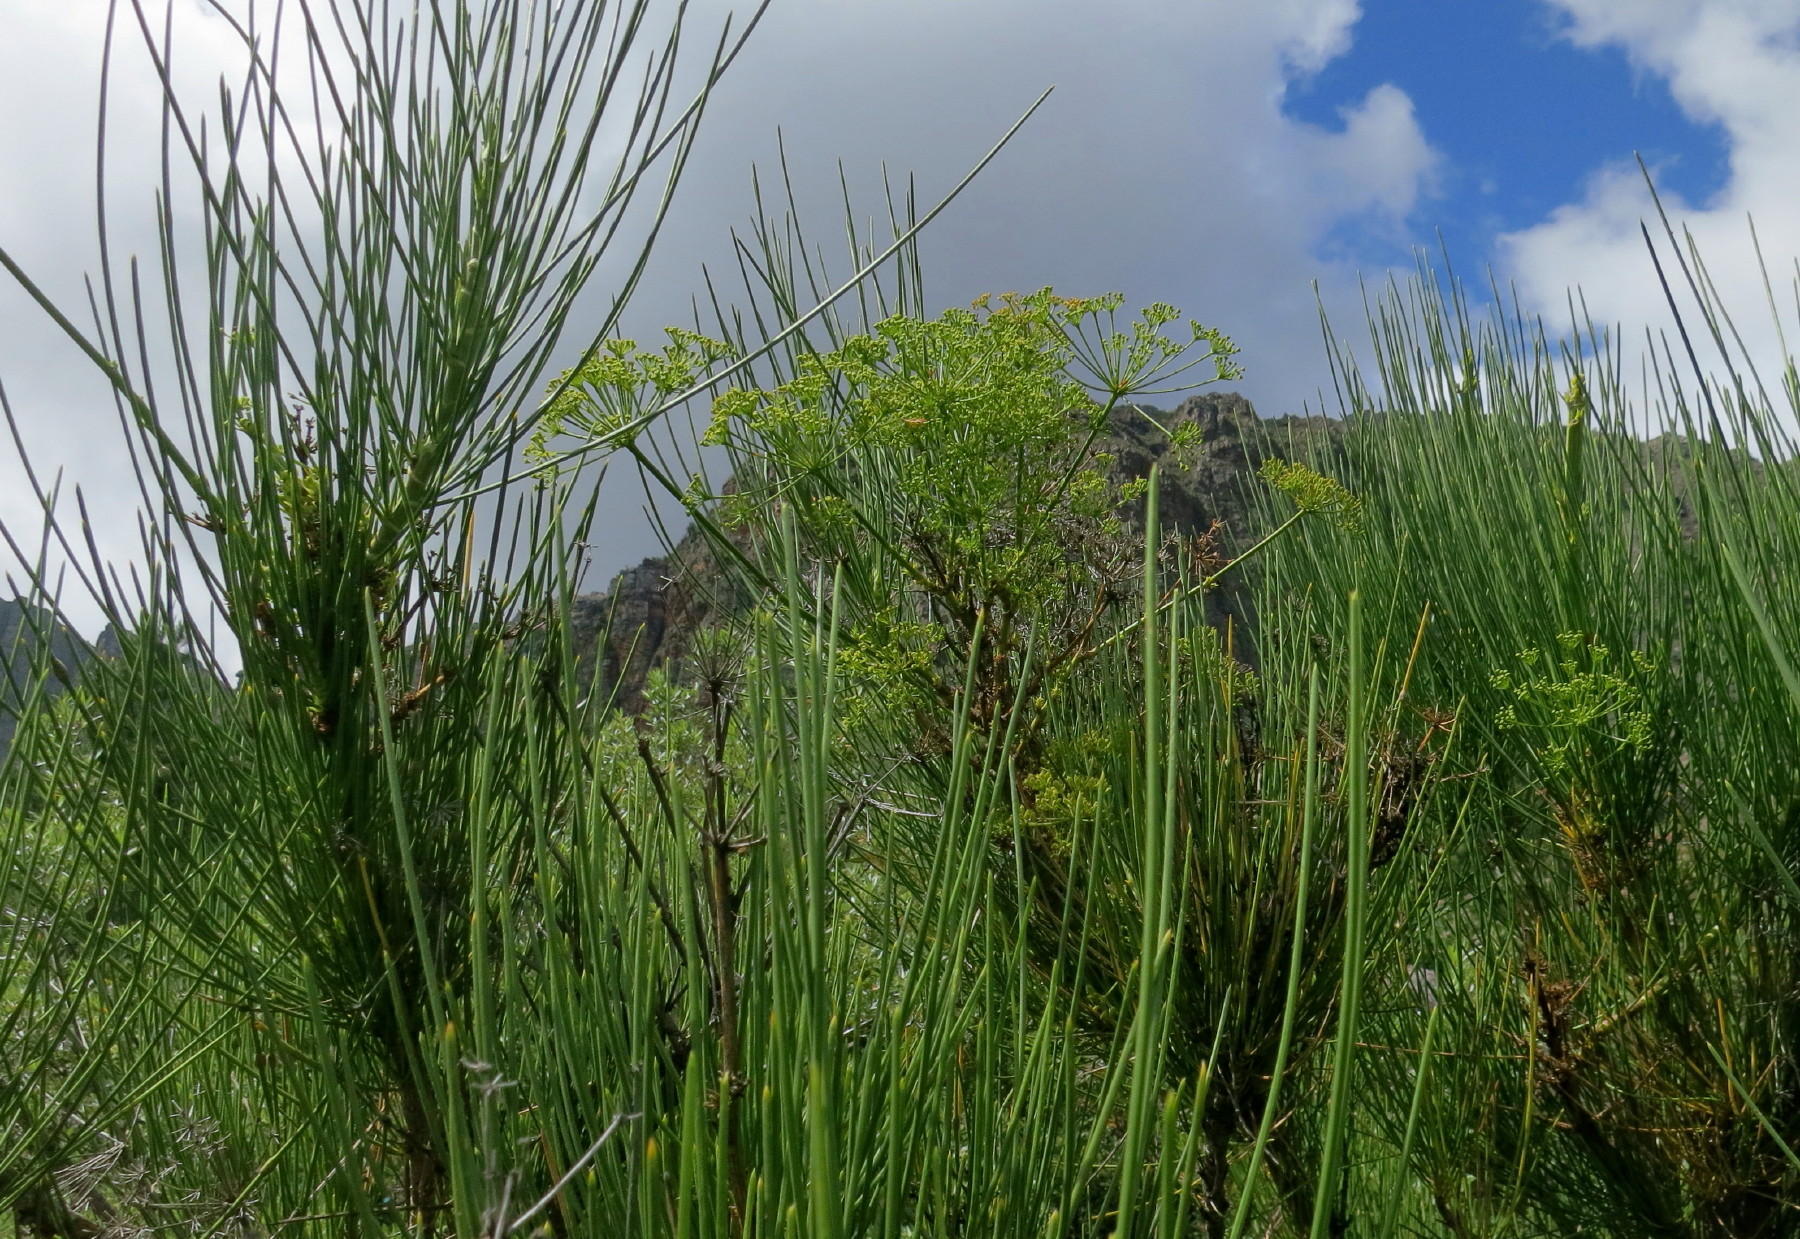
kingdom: Plantae
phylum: Tracheophyta
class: Magnoliopsida
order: Apiales
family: Apiaceae
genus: Anginon
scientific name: Anginon difforme
